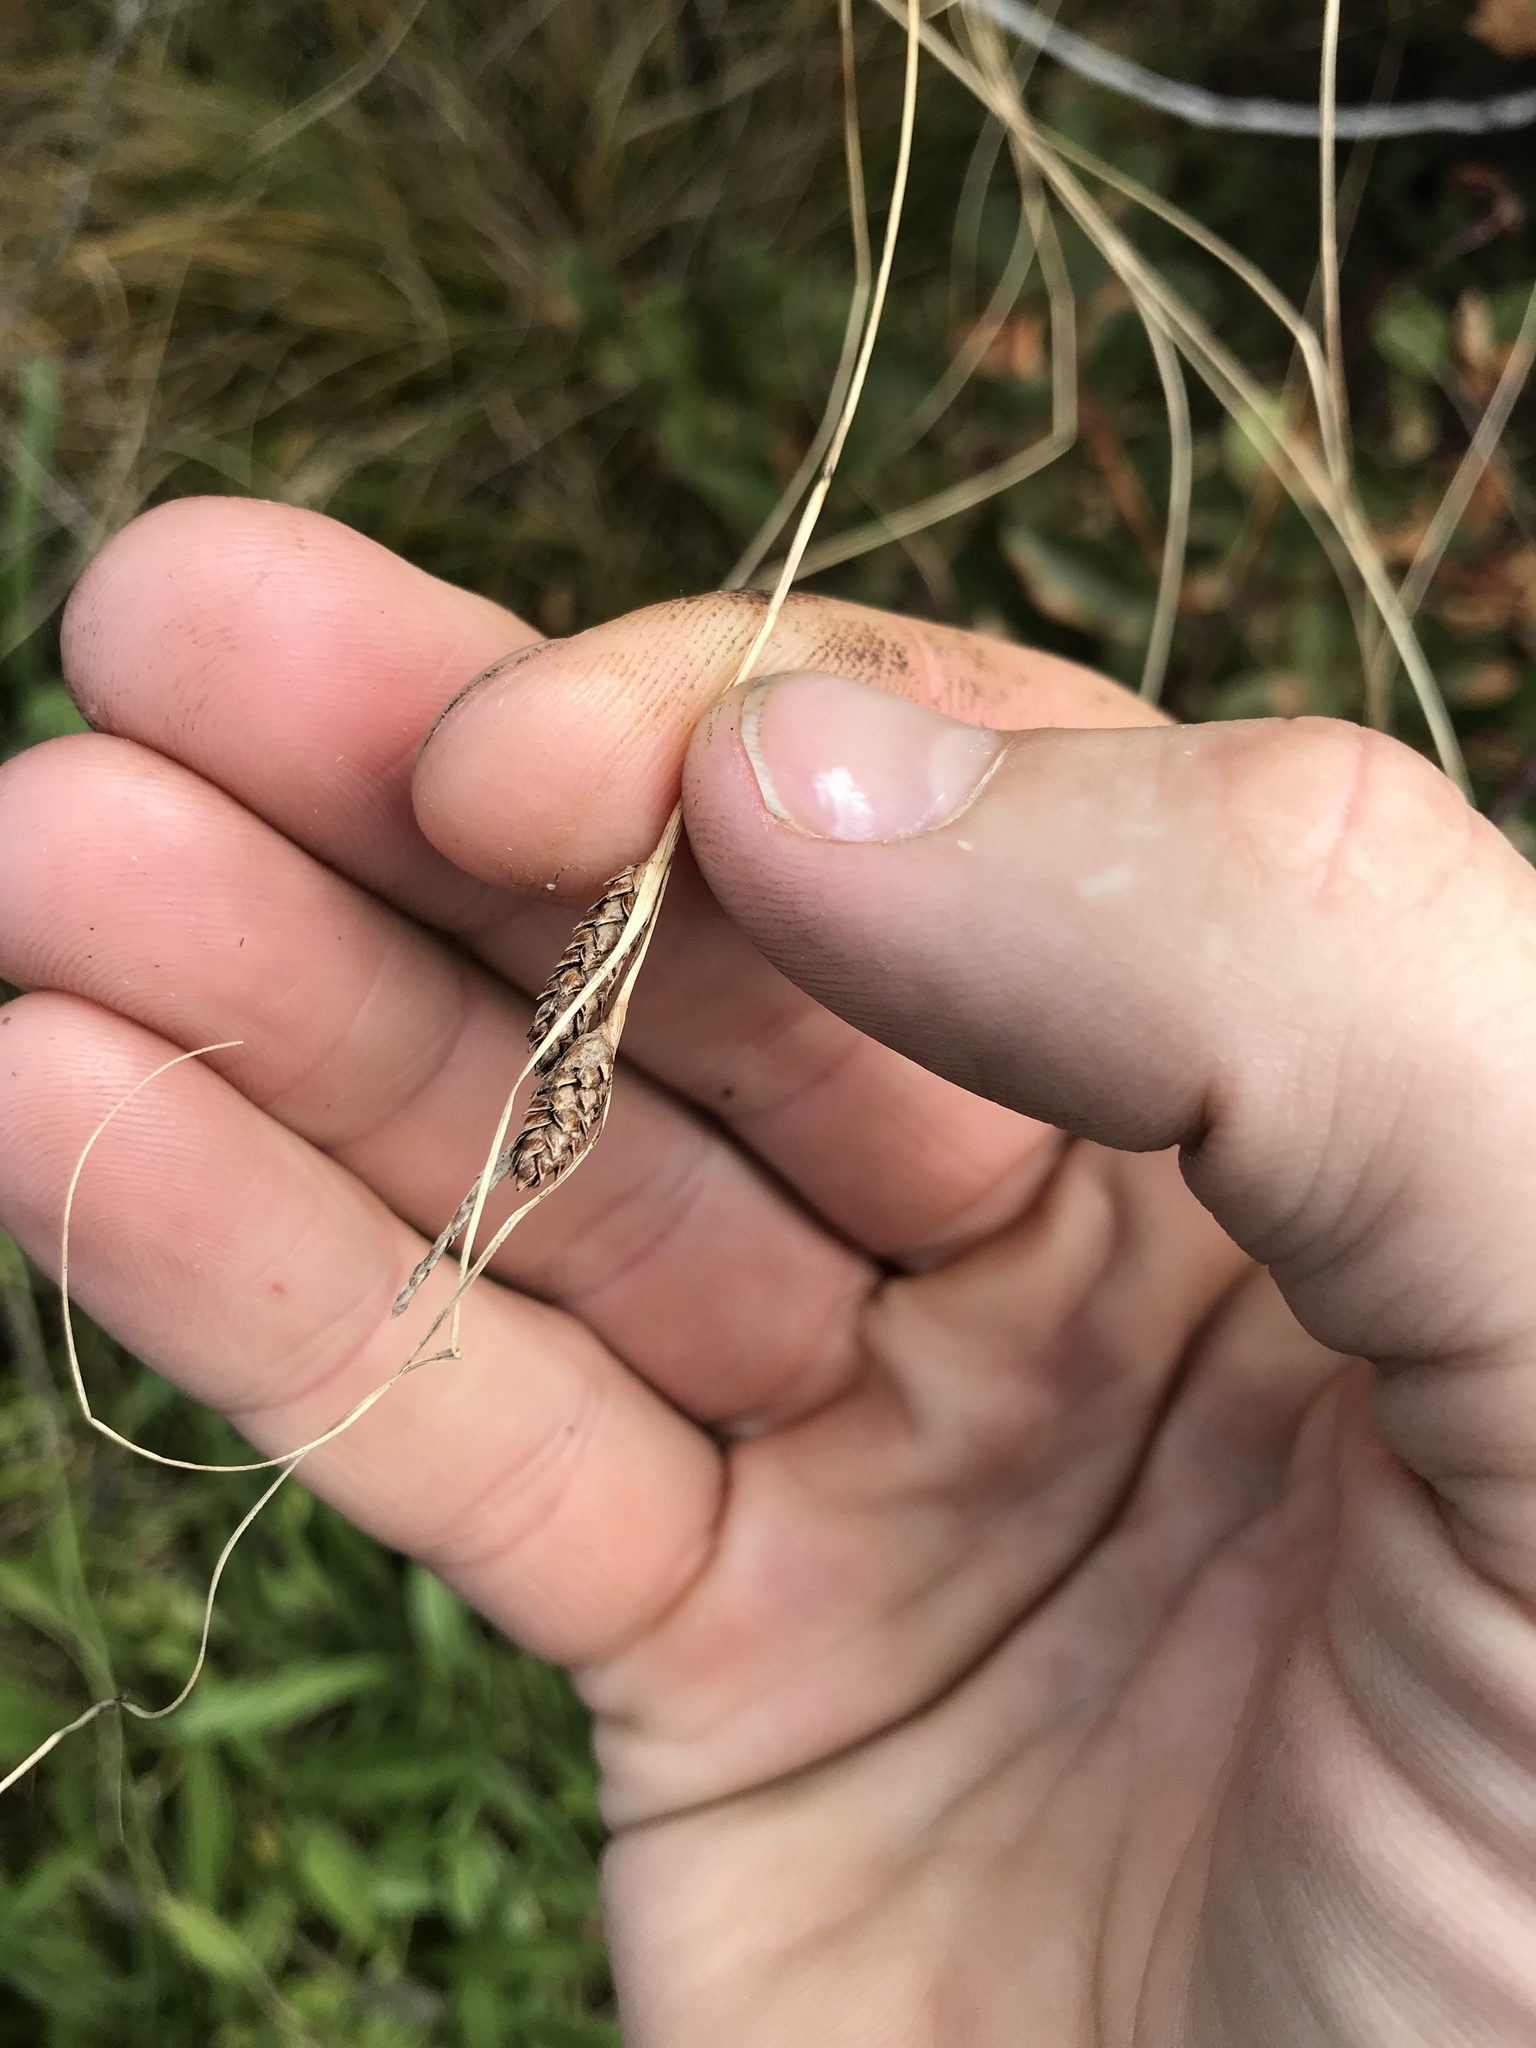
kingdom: Plantae
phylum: Tracheophyta
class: Liliopsida
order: Poales
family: Cyperaceae
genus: Carex
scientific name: Carex testacea
